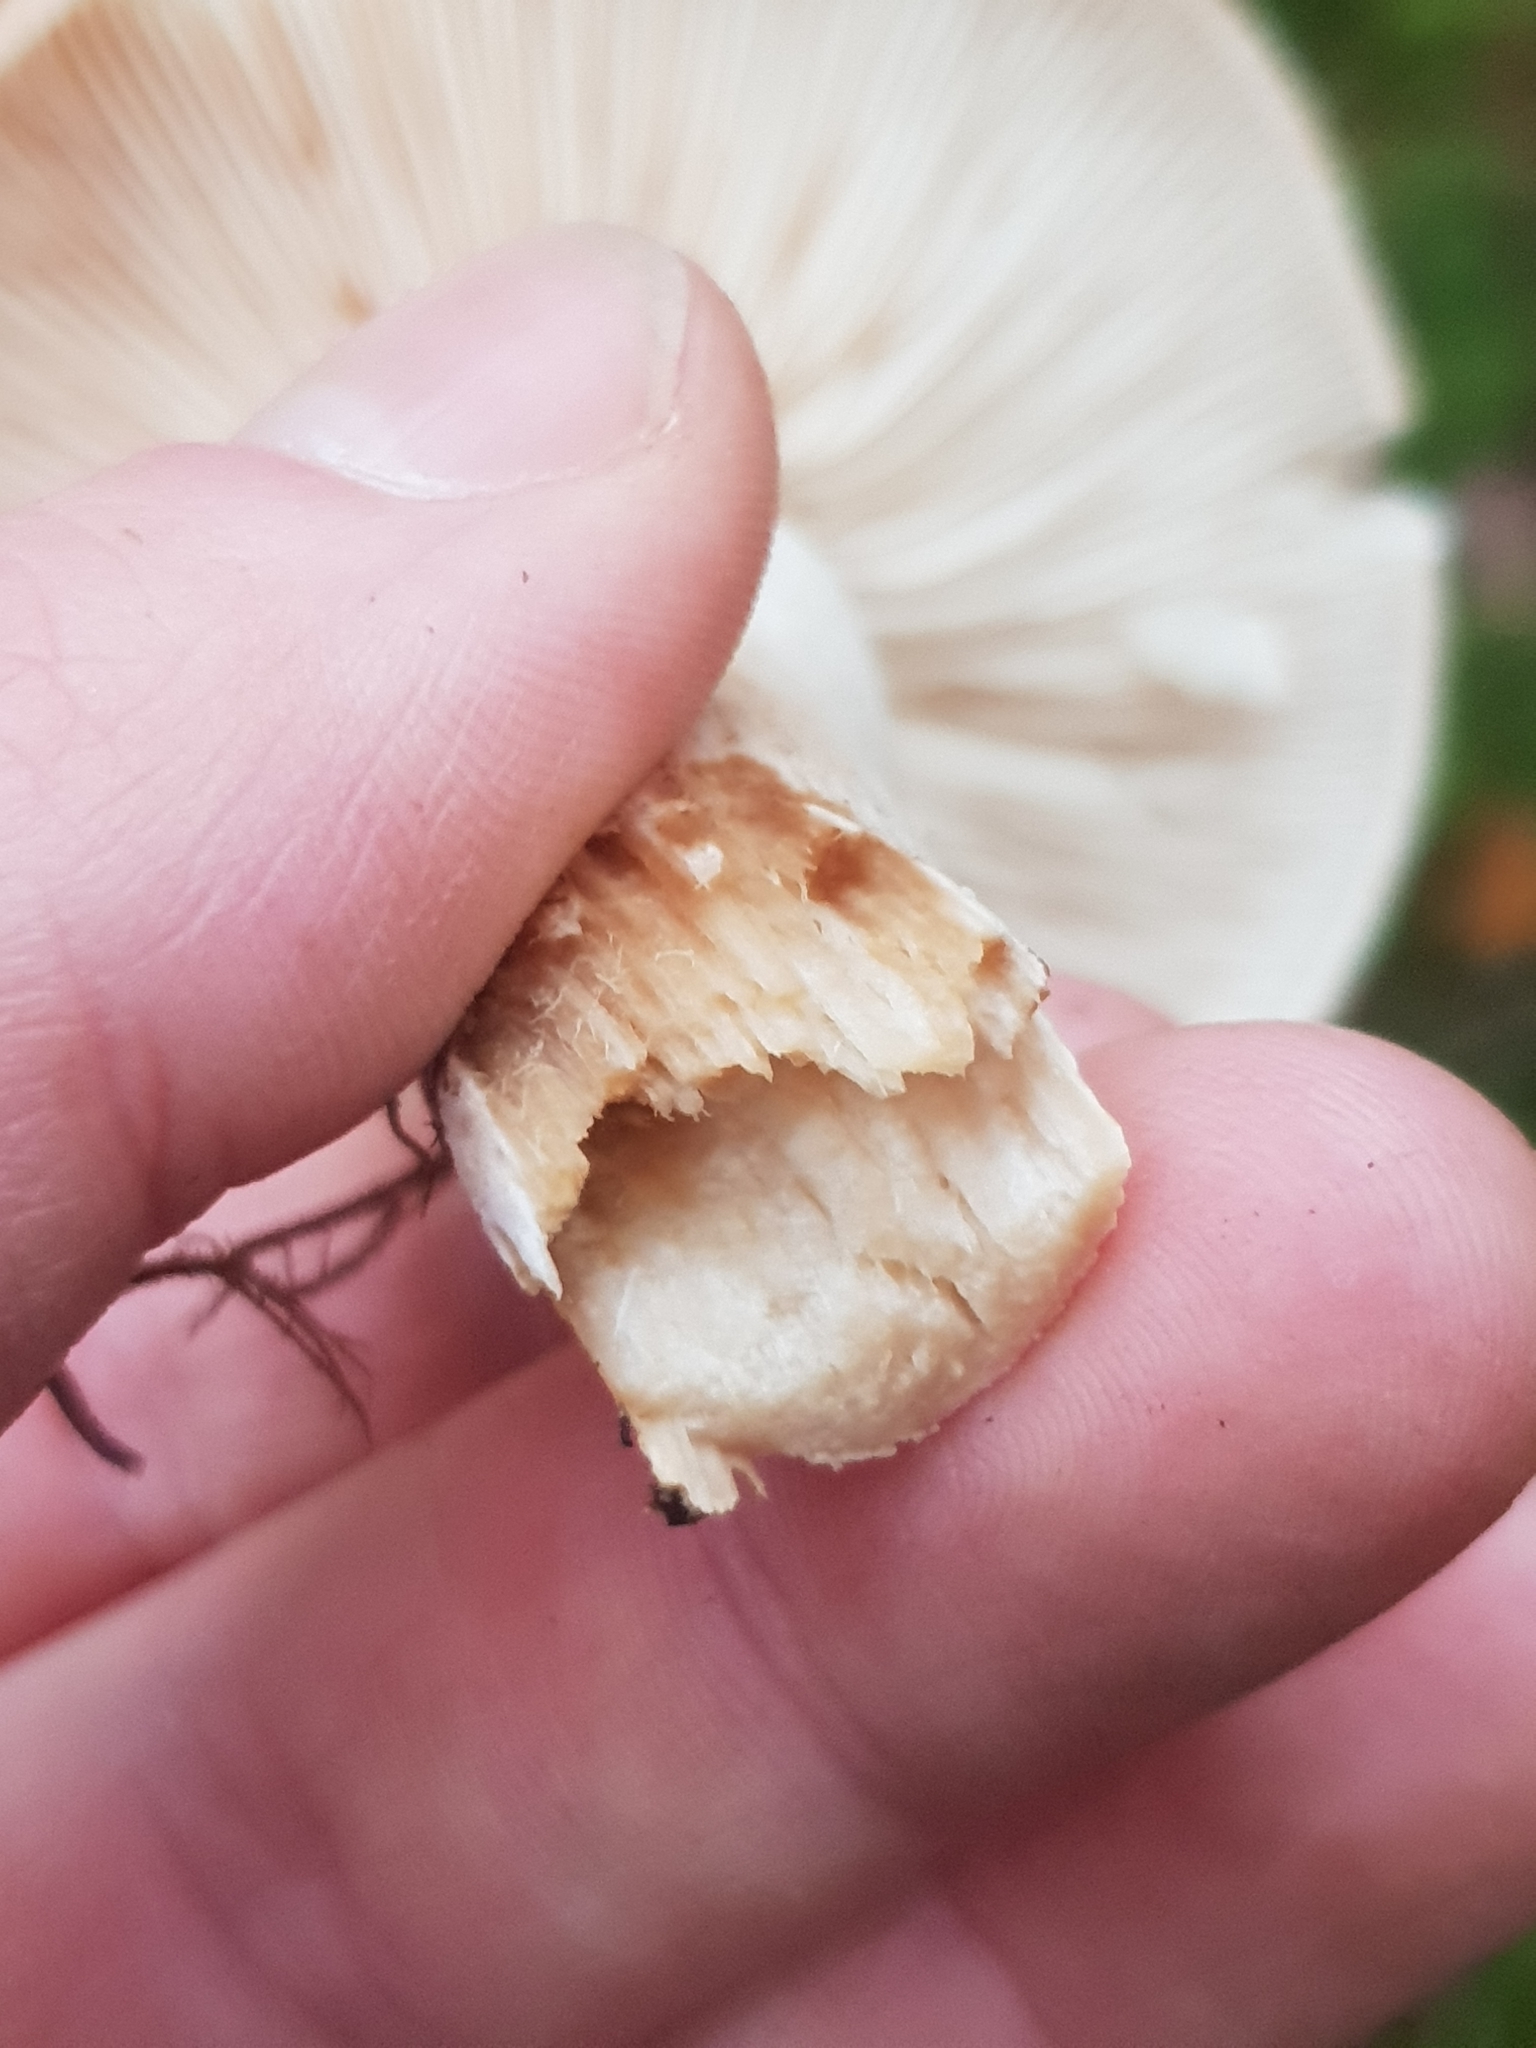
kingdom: Fungi
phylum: Basidiomycota
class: Agaricomycetes
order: Agaricales
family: Tricholomataceae
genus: Tricholoma
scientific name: Tricholoma pessundatum
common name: Tacked knight
